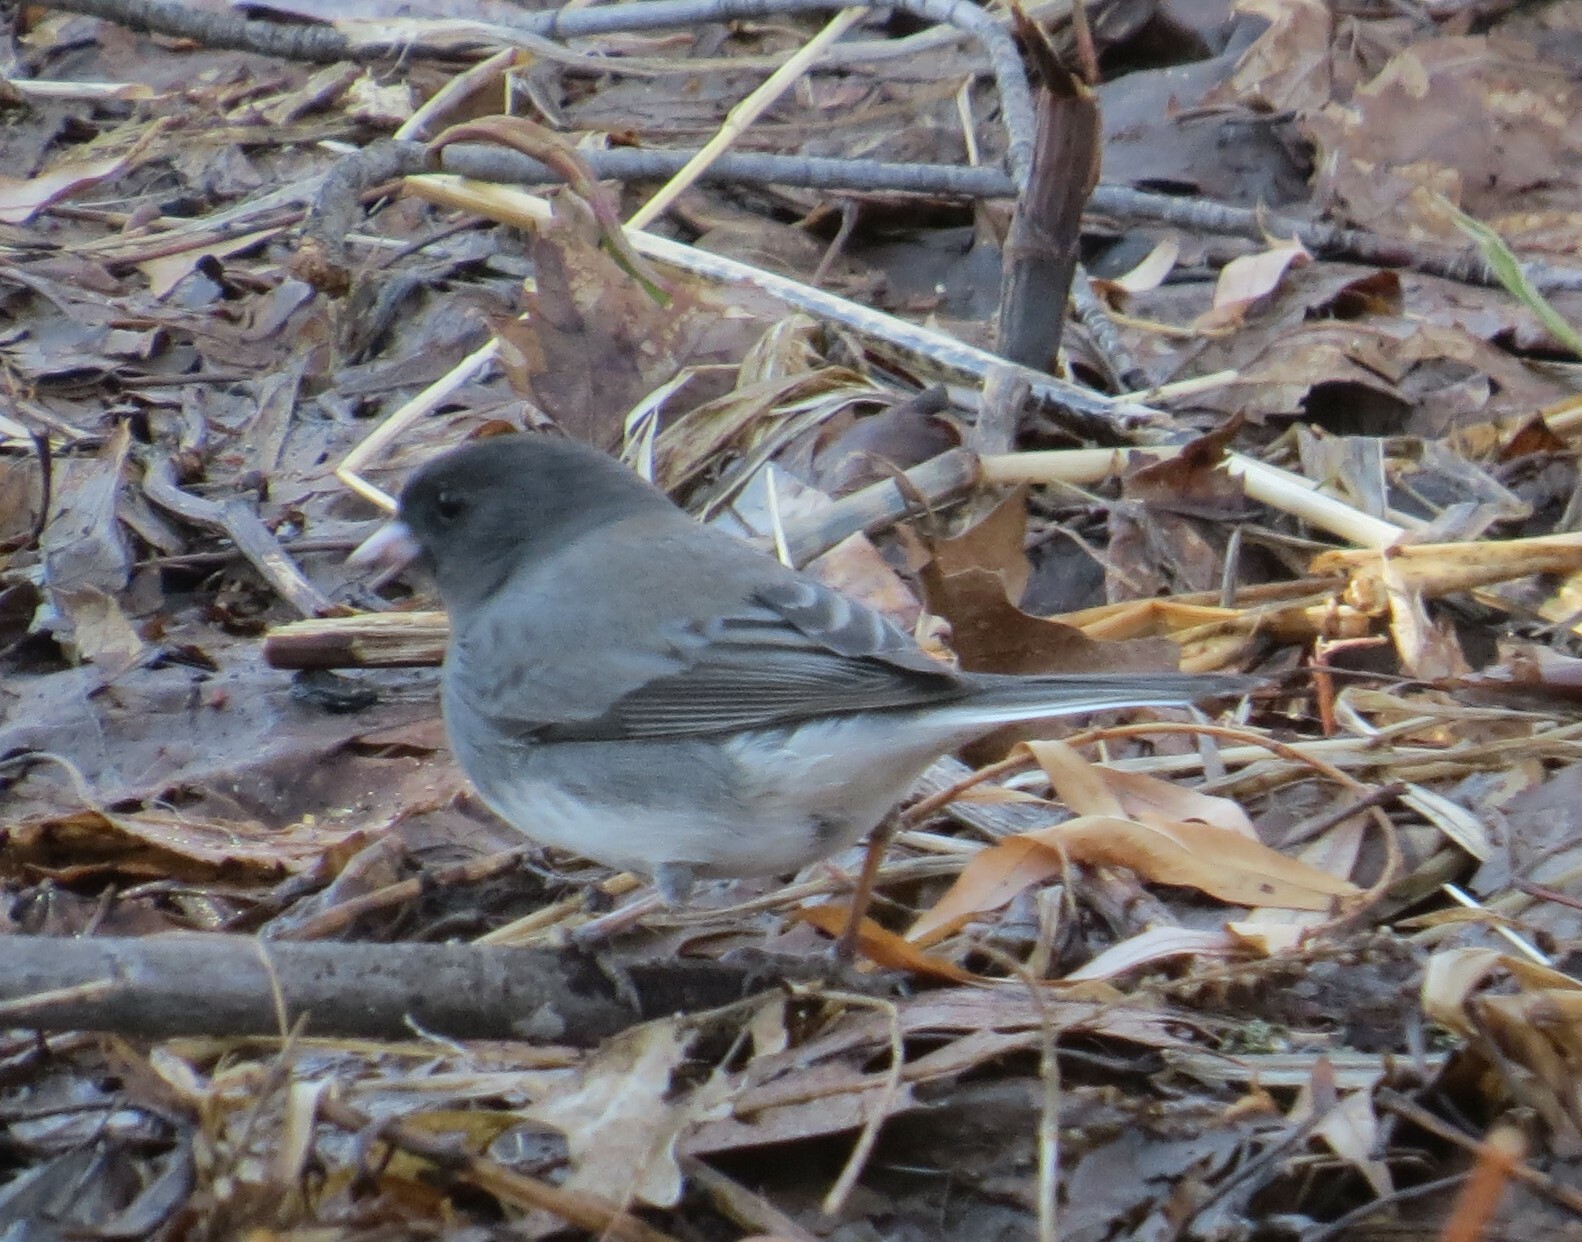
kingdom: Animalia
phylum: Chordata
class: Aves
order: Passeriformes
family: Passerellidae
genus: Junco
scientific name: Junco hyemalis
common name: Dark-eyed junco
